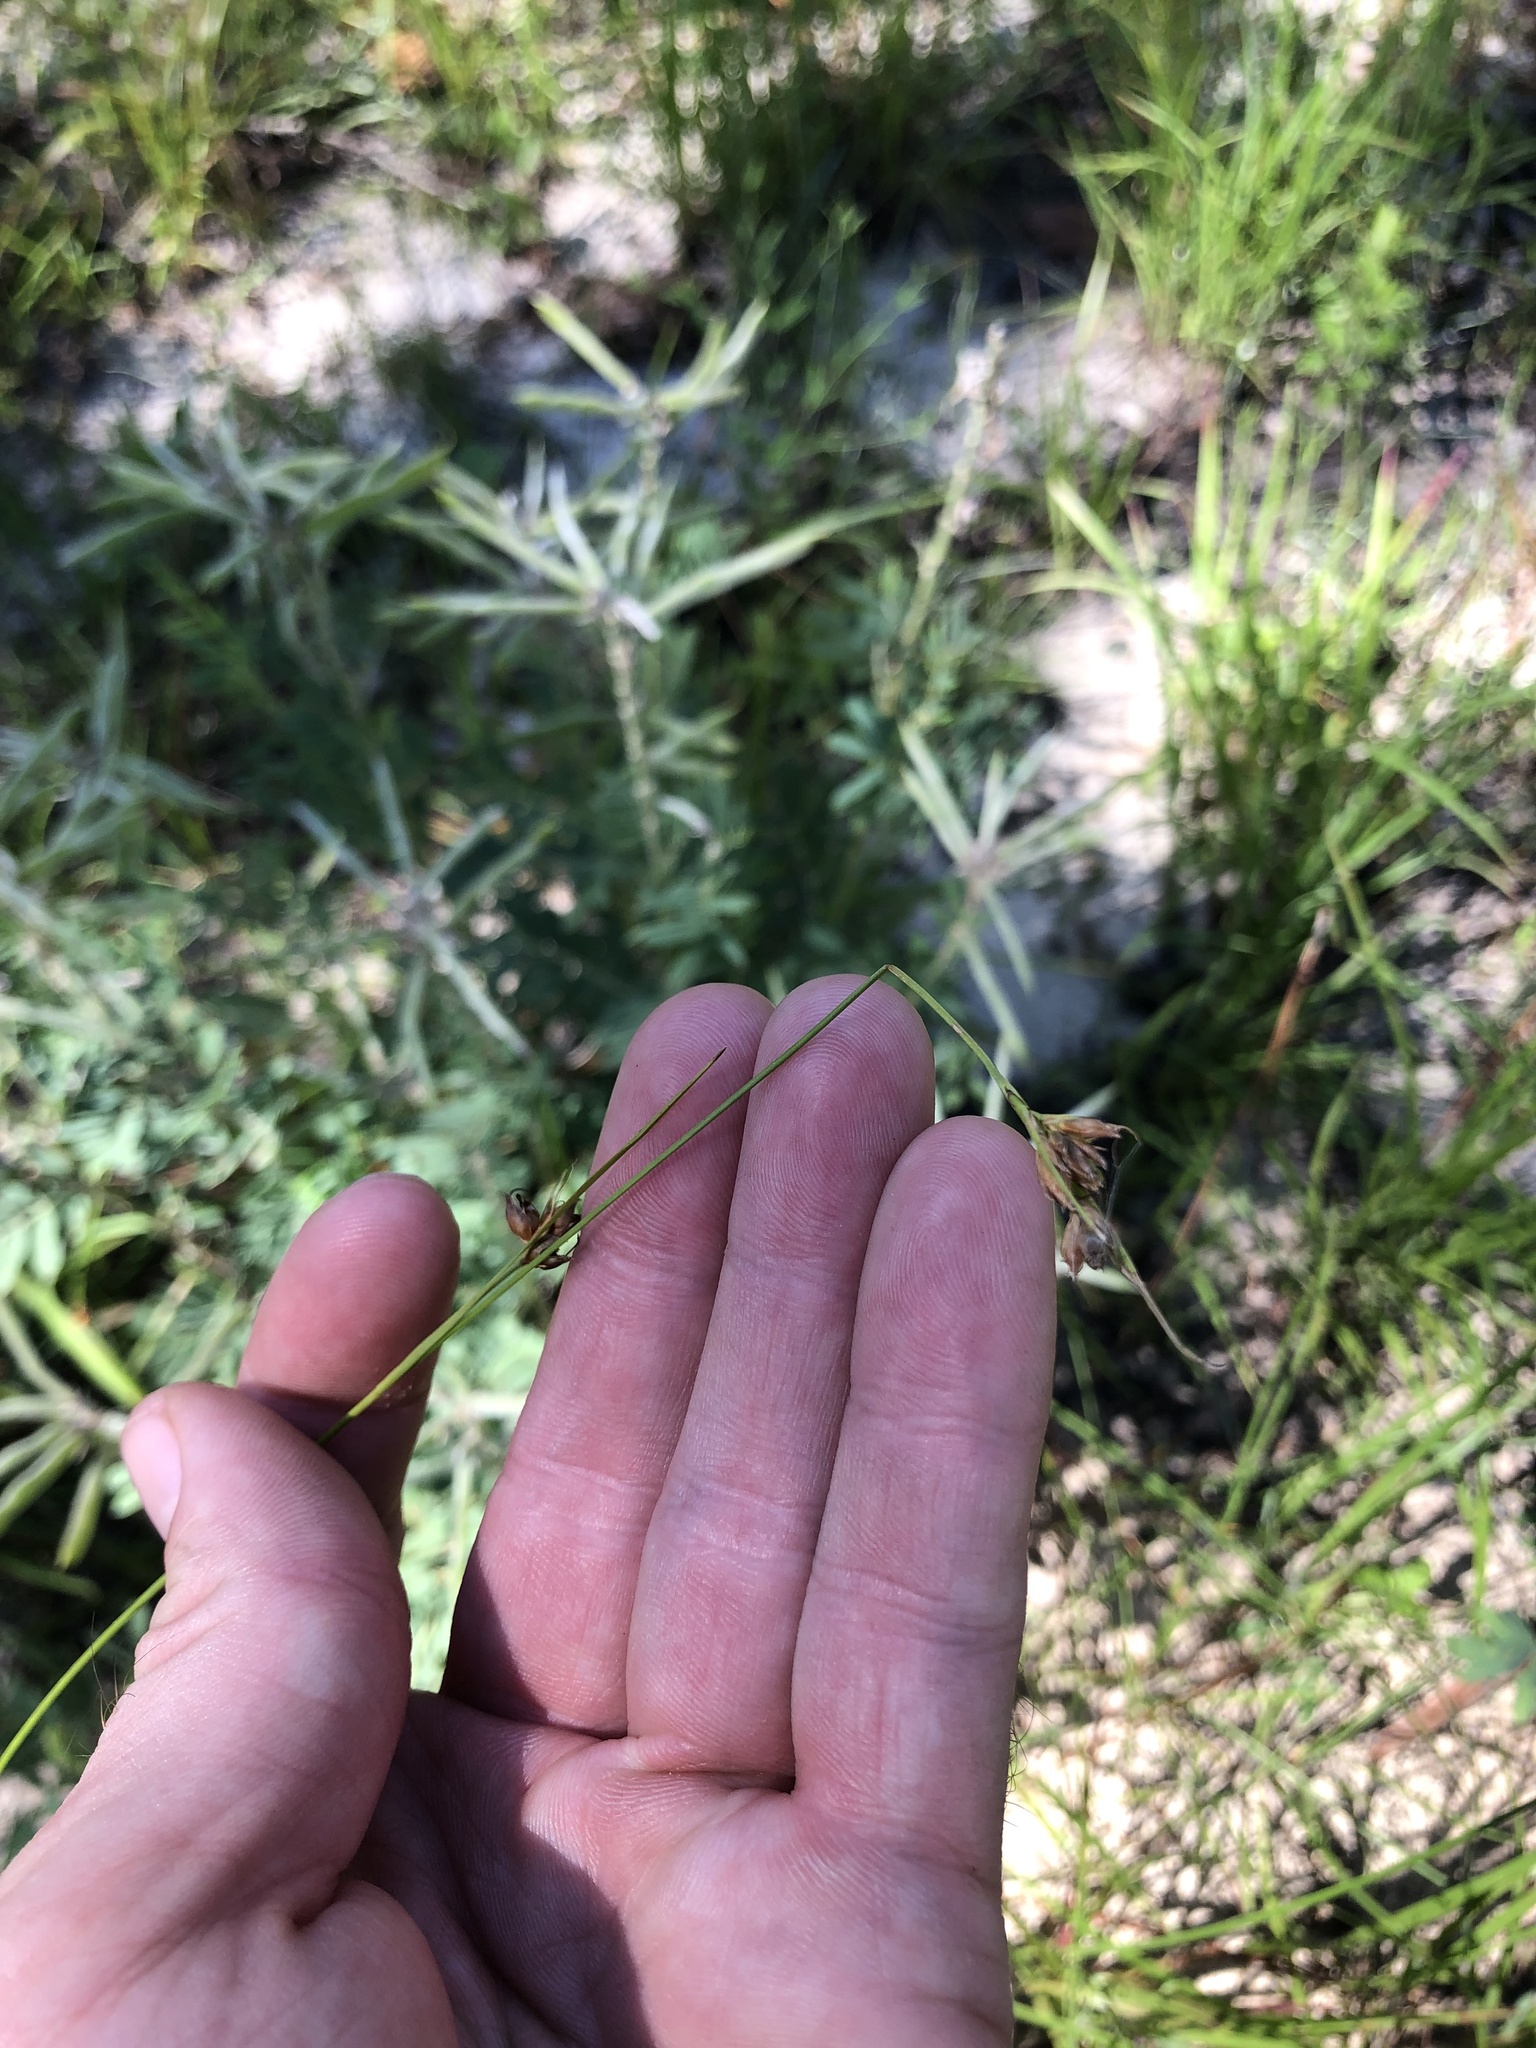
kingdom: Plantae
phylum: Tracheophyta
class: Liliopsida
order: Poales
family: Cyperaceae
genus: Rhynchospora
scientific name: Rhynchospora grayi
